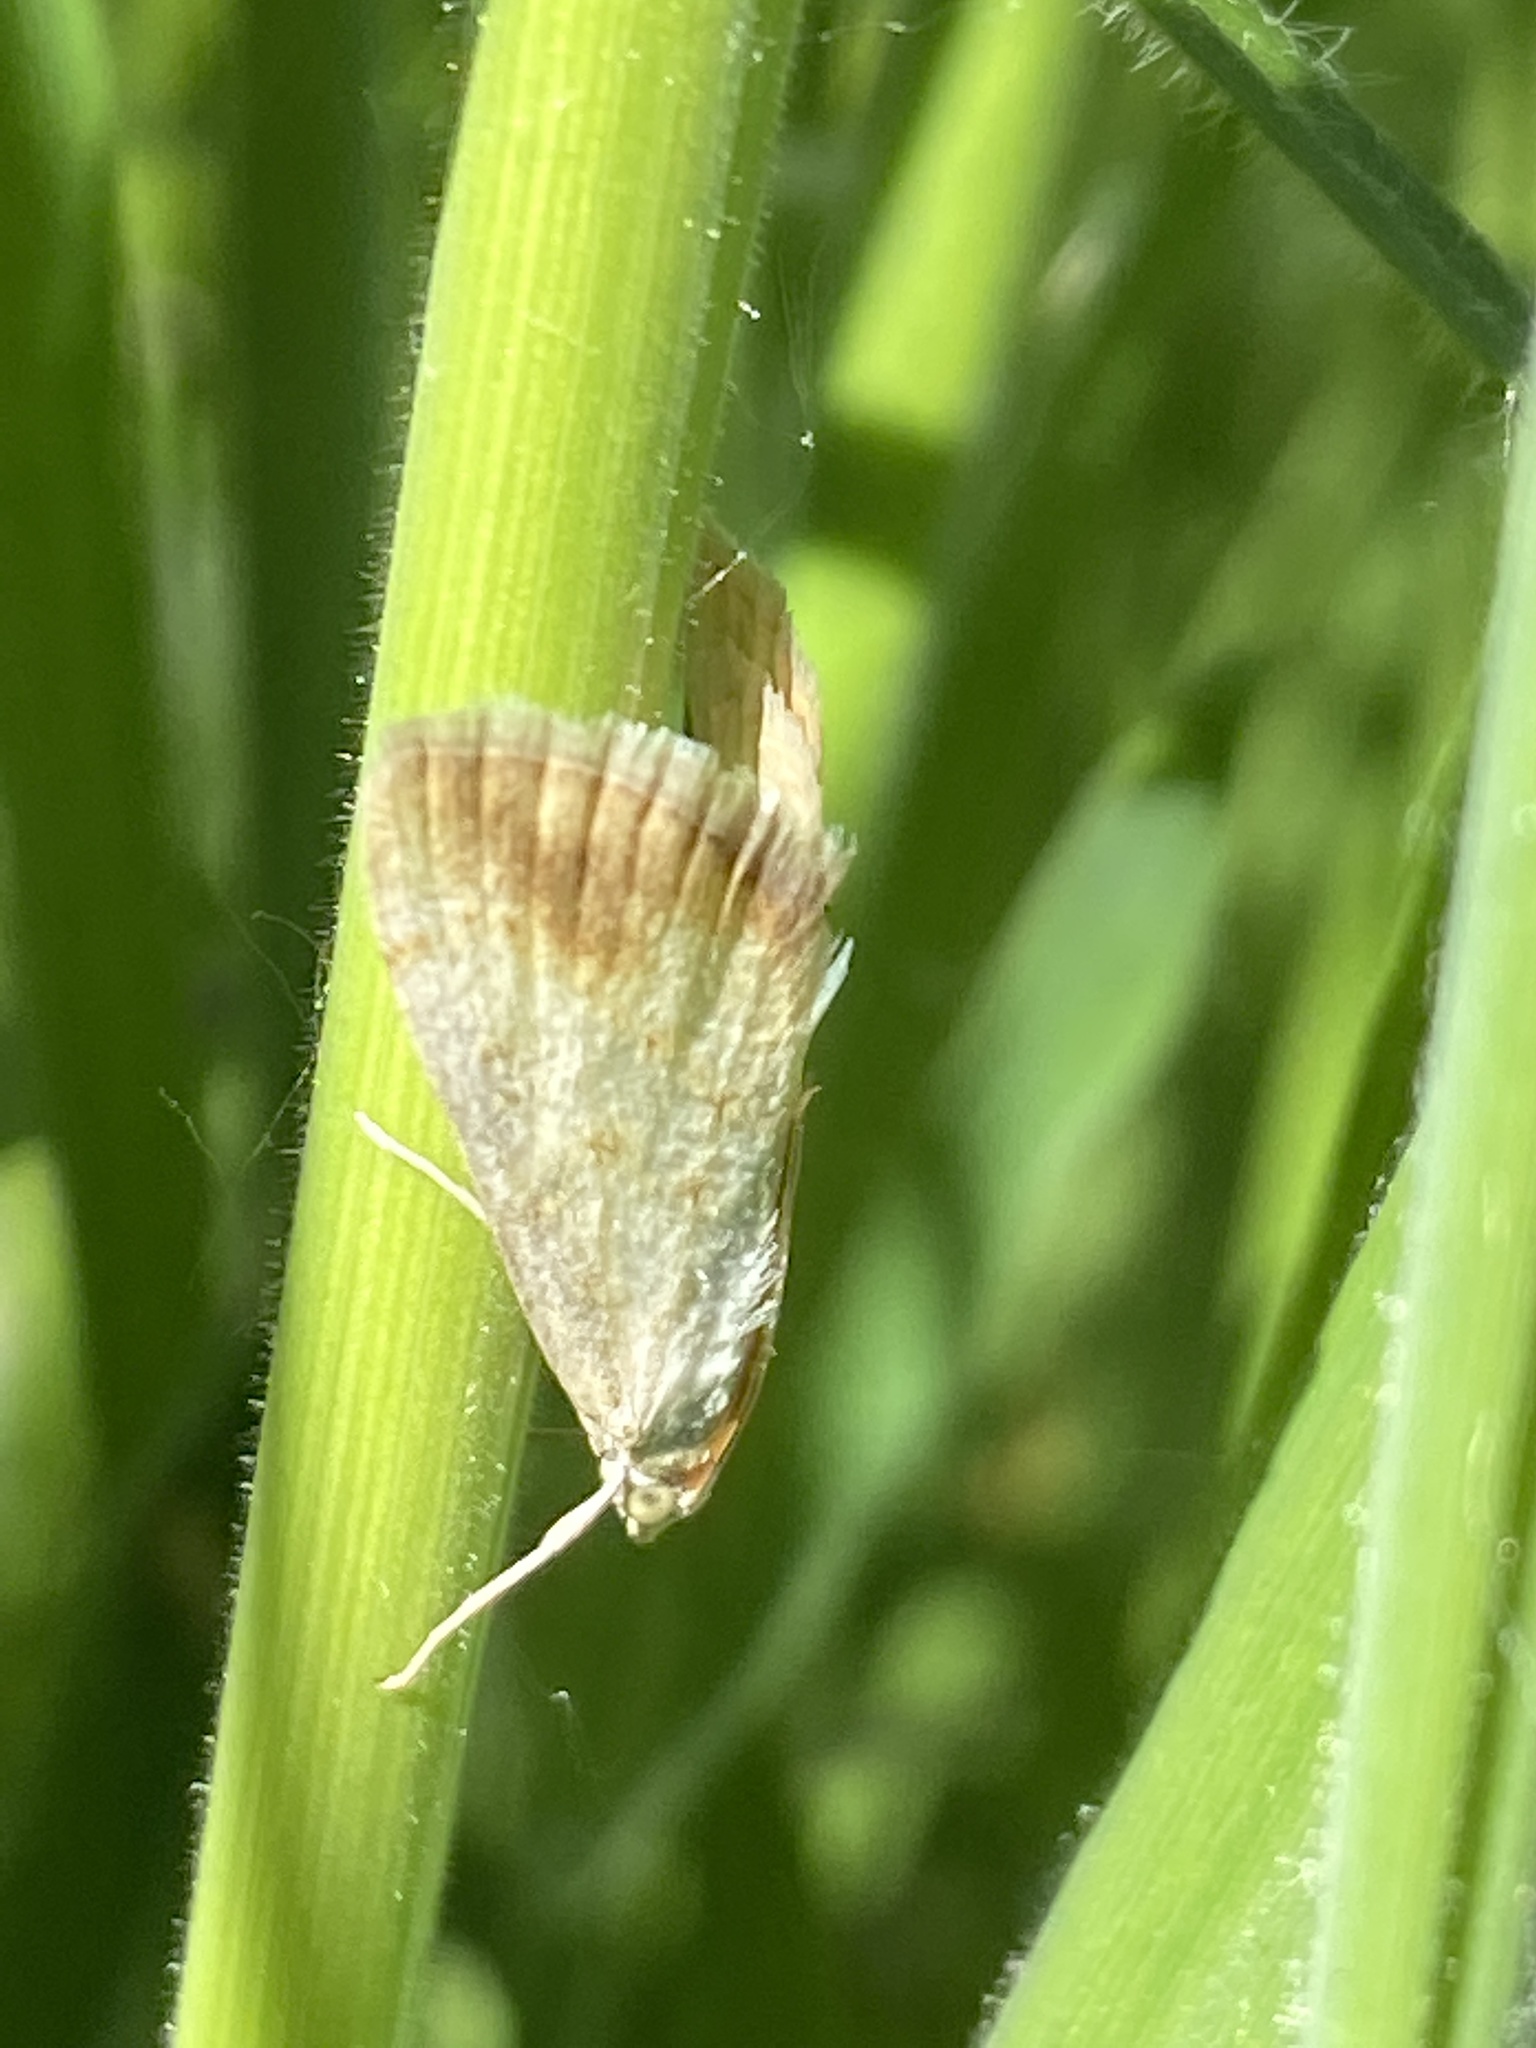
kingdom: Animalia
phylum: Arthropoda
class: Insecta
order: Lepidoptera
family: Crambidae
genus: Evergestis
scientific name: Evergestis extimalis
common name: Marbled yellow pearl
